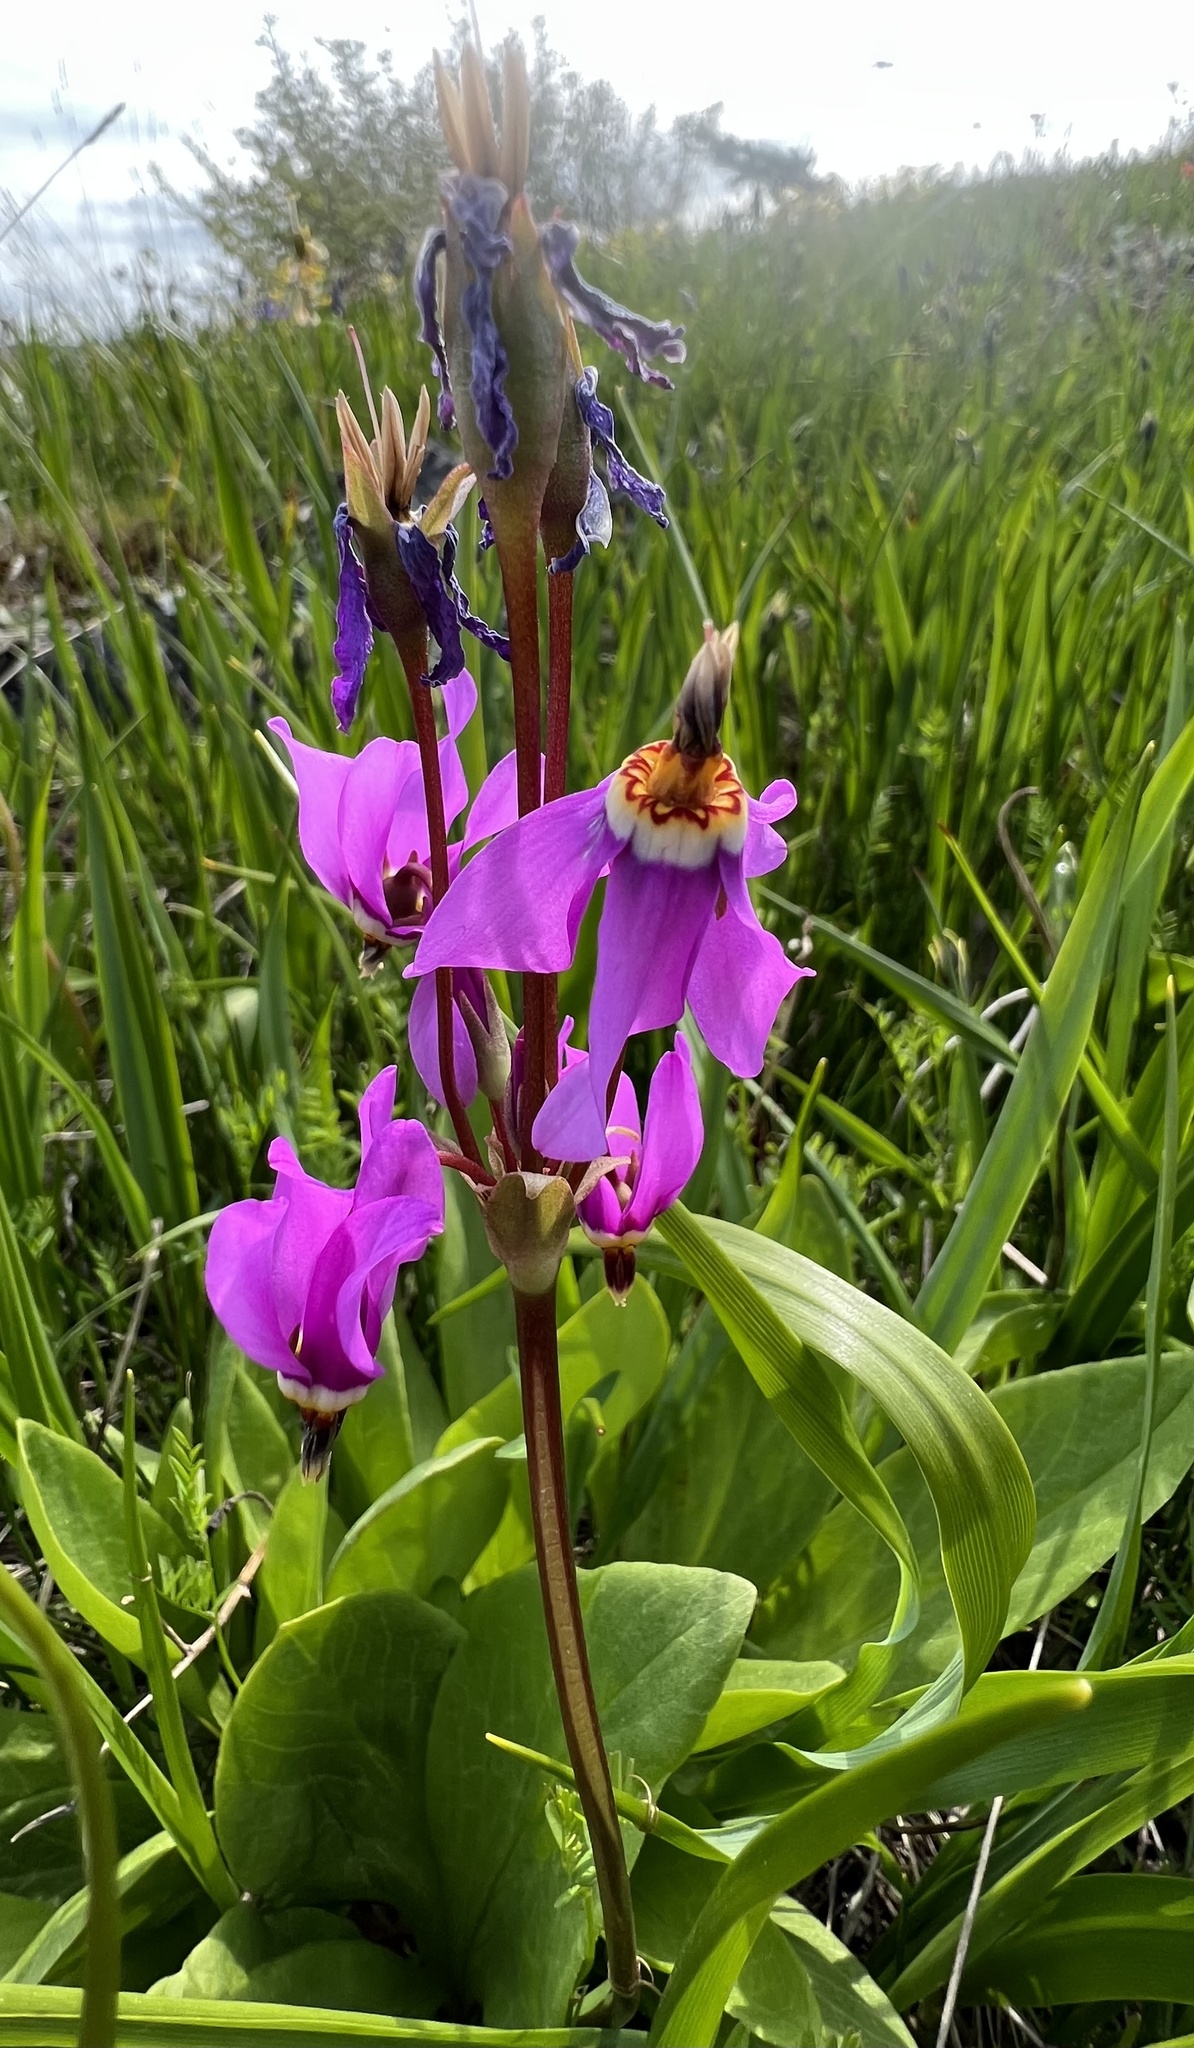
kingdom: Plantae
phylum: Tracheophyta
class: Magnoliopsida
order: Ericales
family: Primulaceae
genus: Dodecatheon
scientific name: Dodecatheon pulchellum
